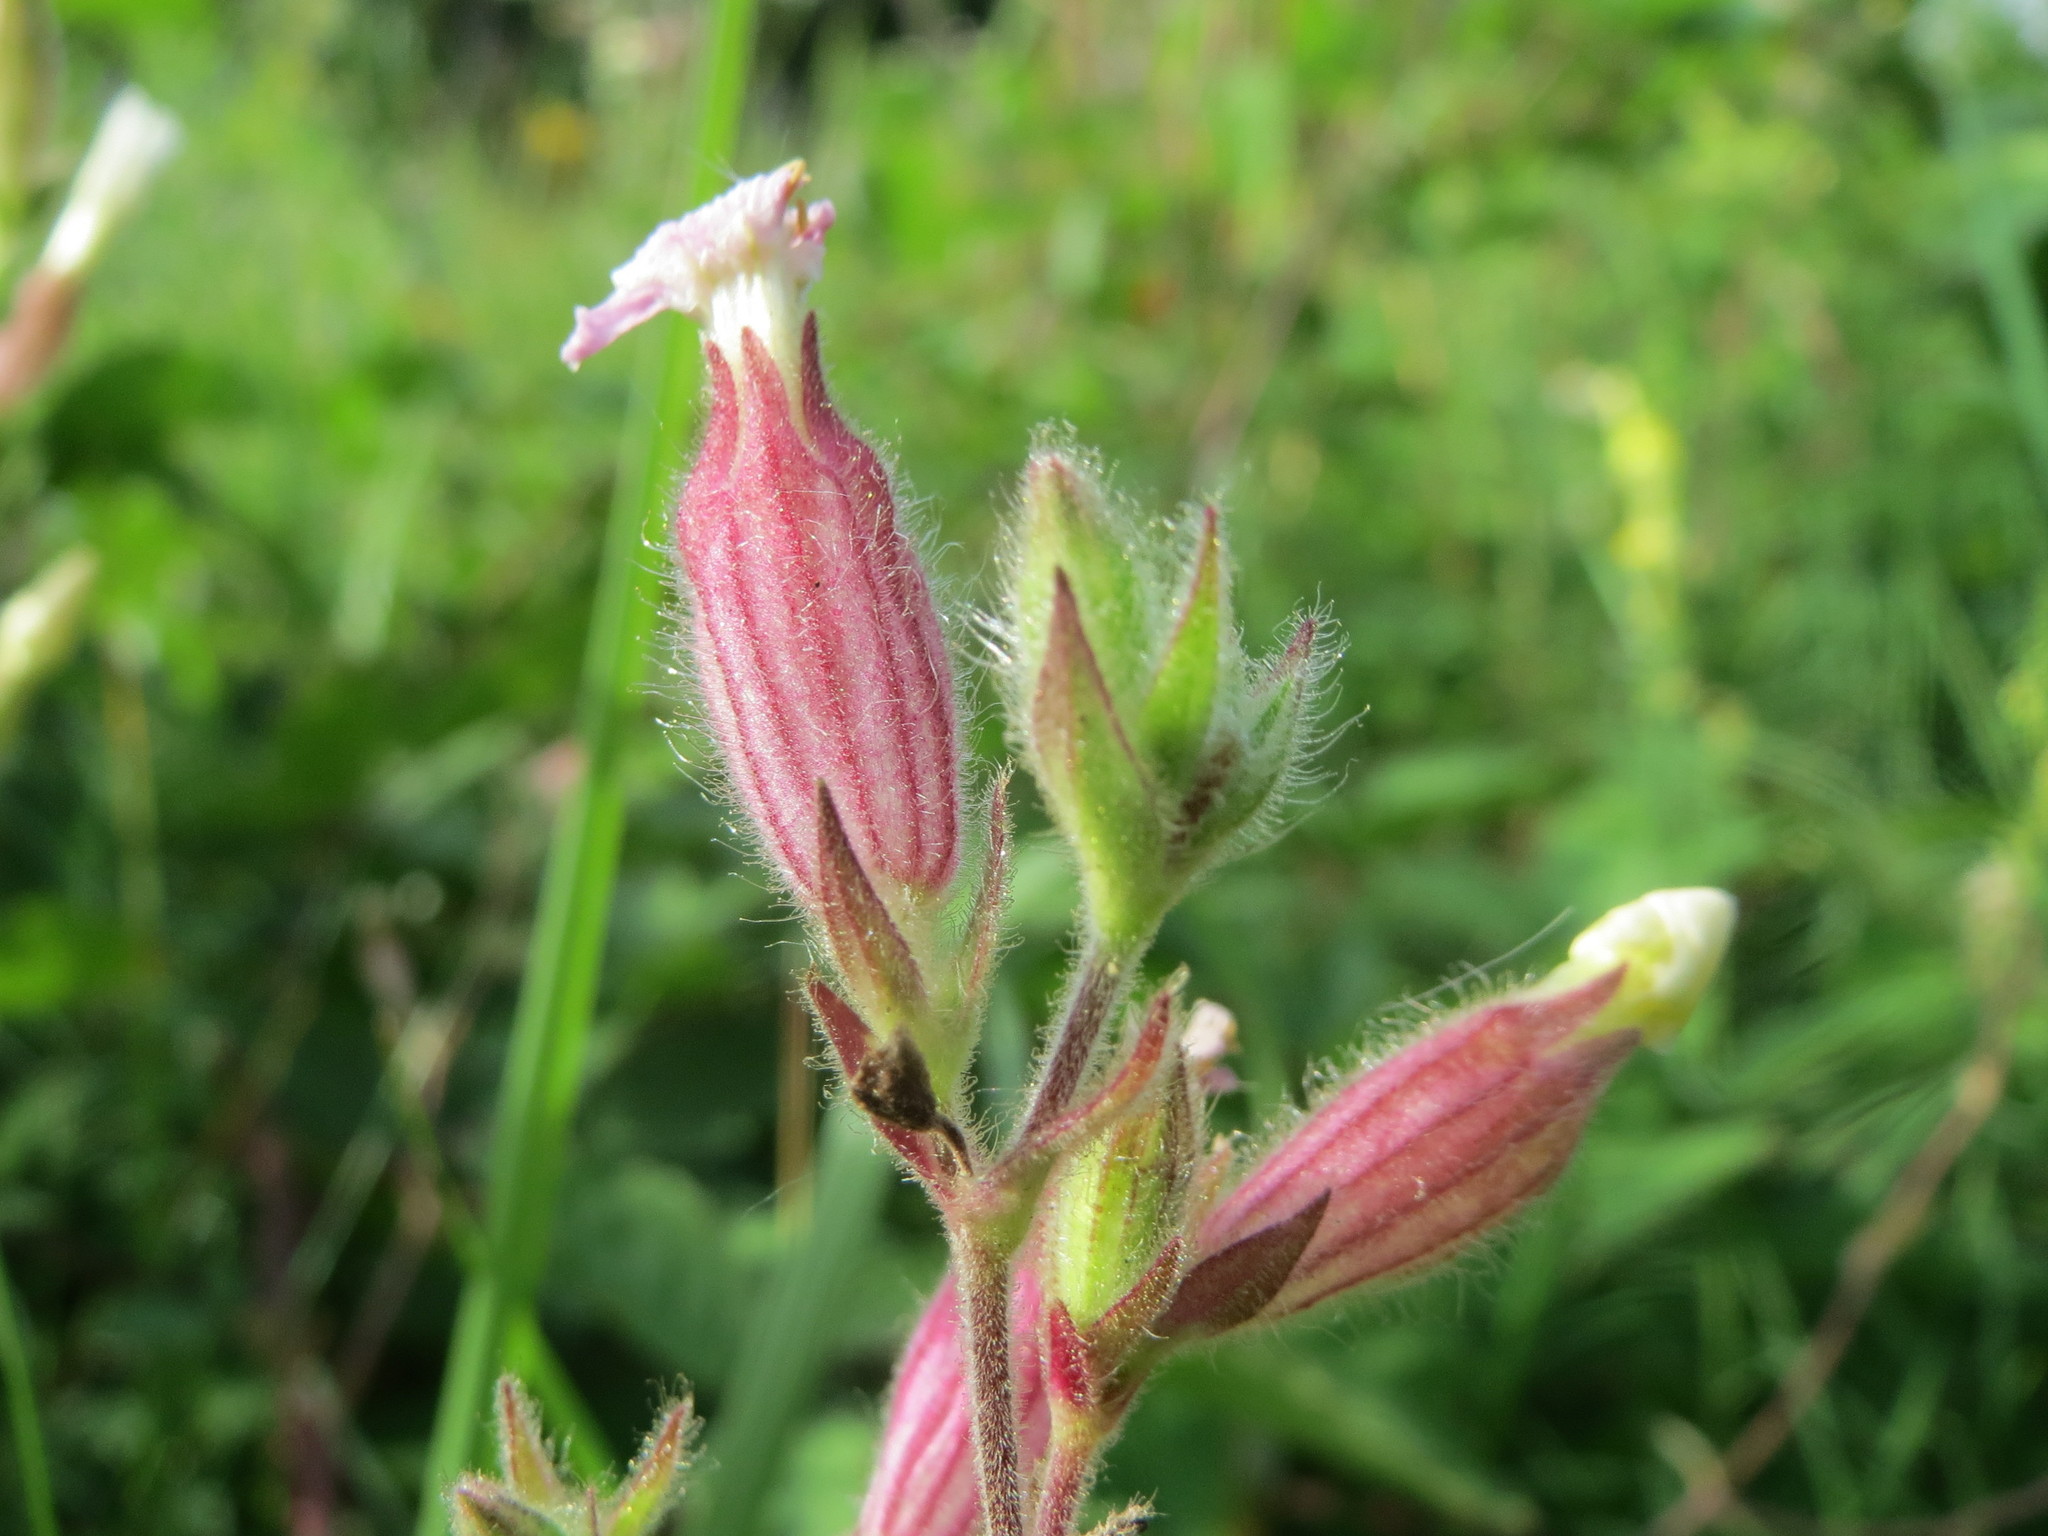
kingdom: Plantae
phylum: Tracheophyta
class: Magnoliopsida
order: Caryophyllales
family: Caryophyllaceae
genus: Silene
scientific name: Silene latifolia
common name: White campion
